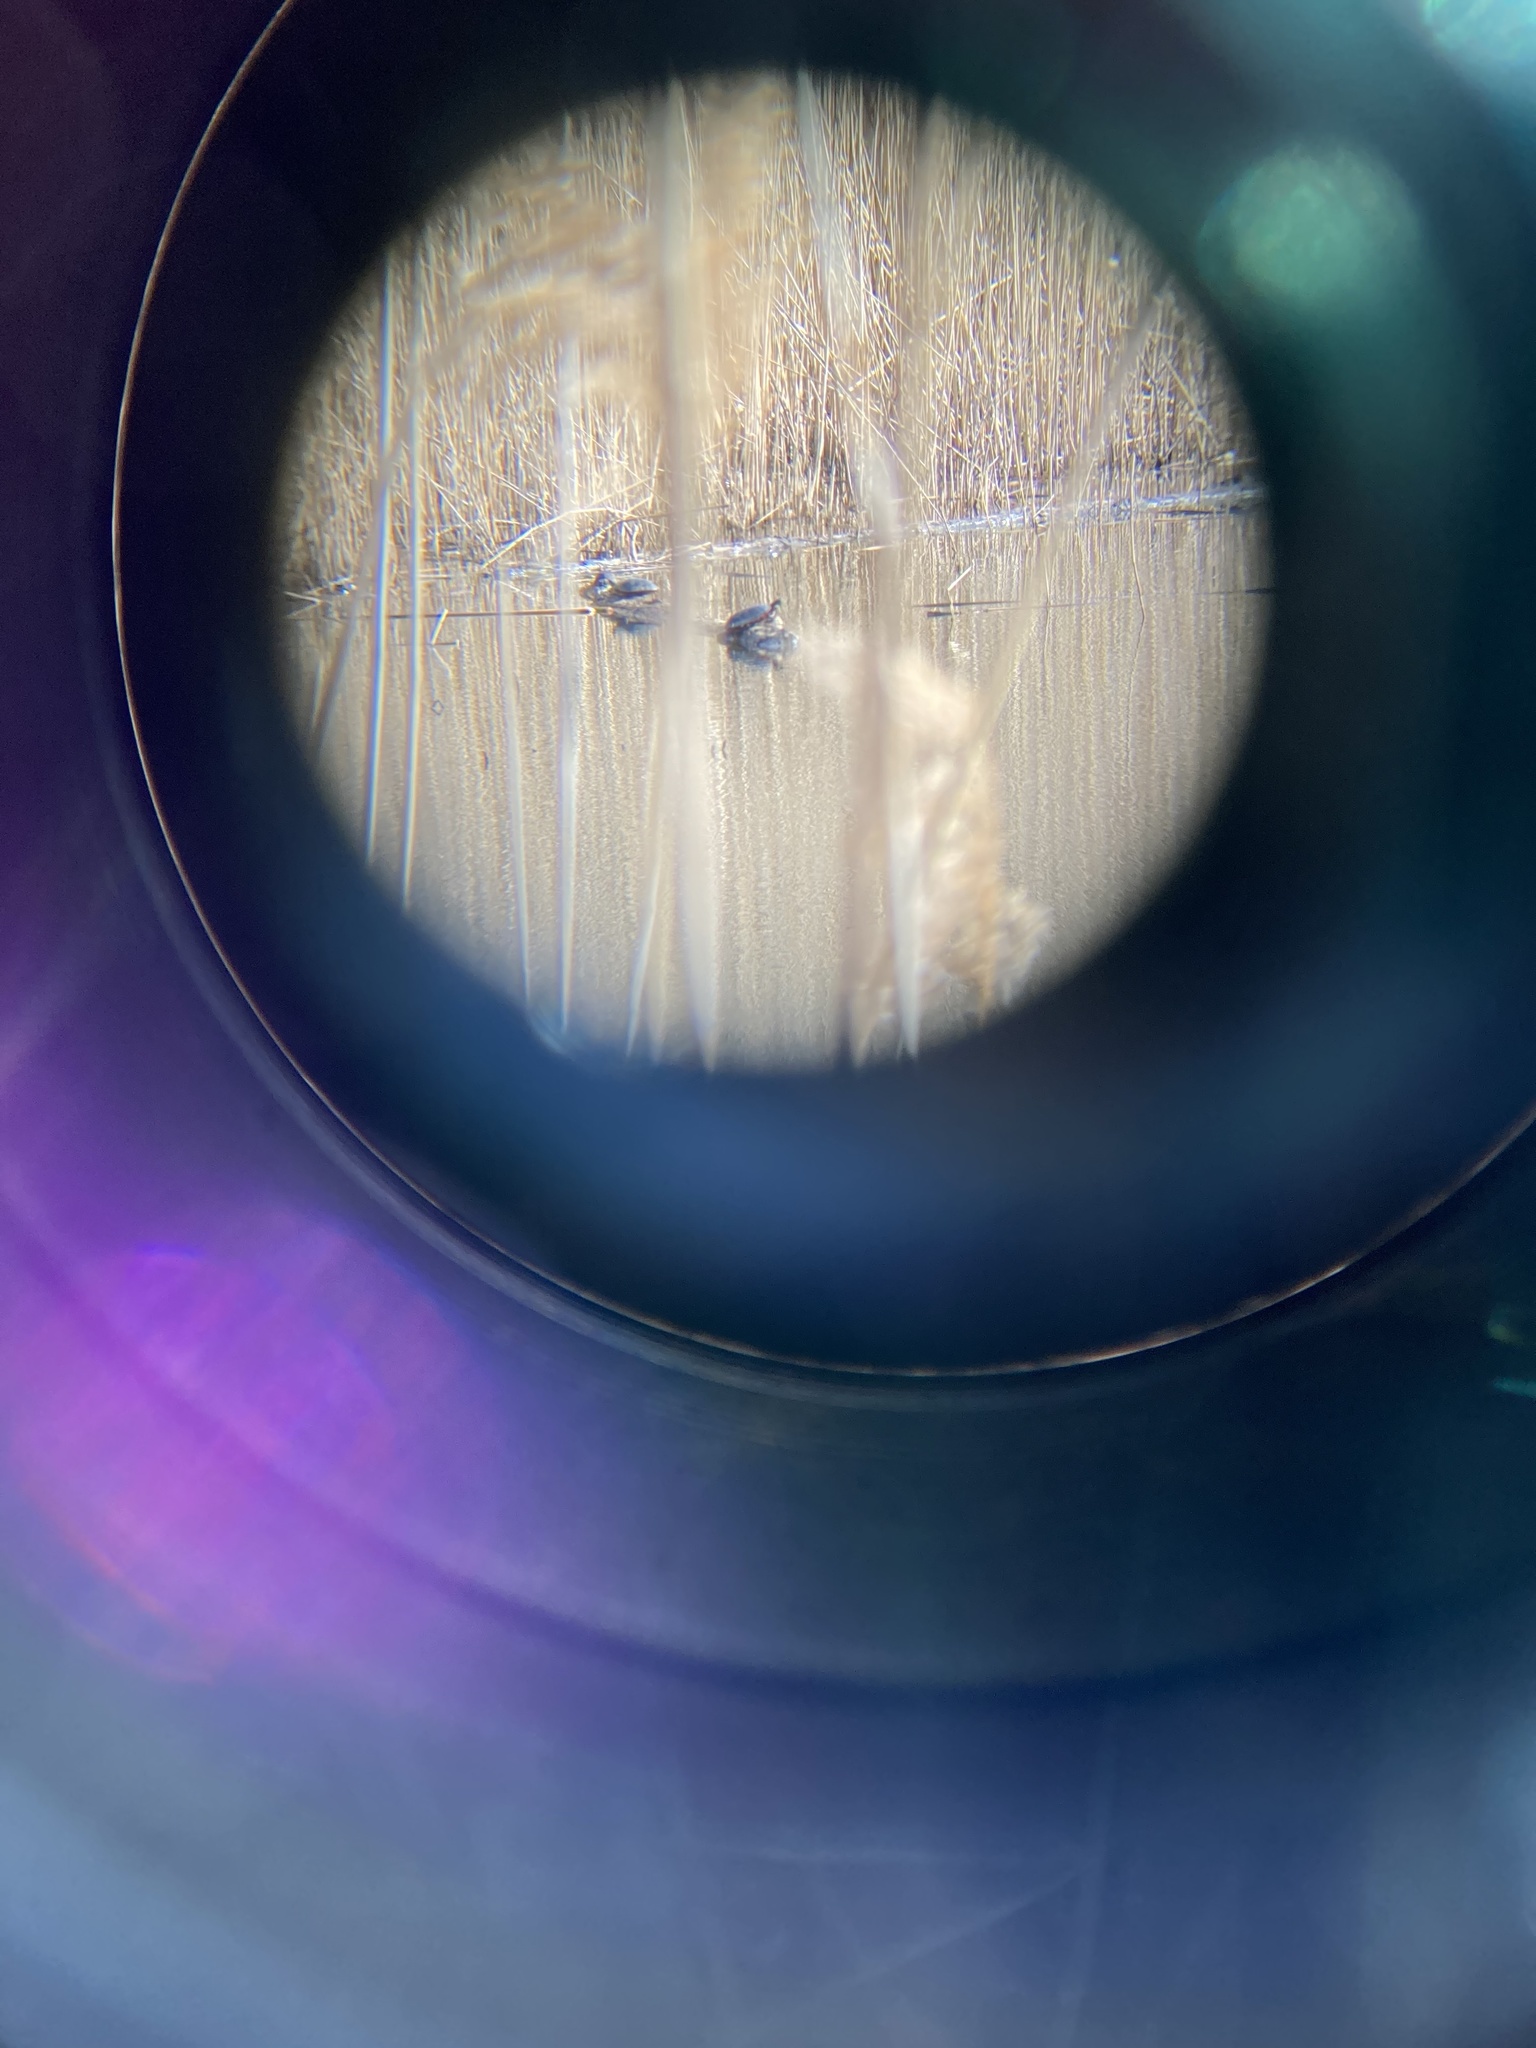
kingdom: Animalia
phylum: Chordata
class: Testudines
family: Emydidae
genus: Chrysemys
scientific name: Chrysemys picta
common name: Painted turtle
